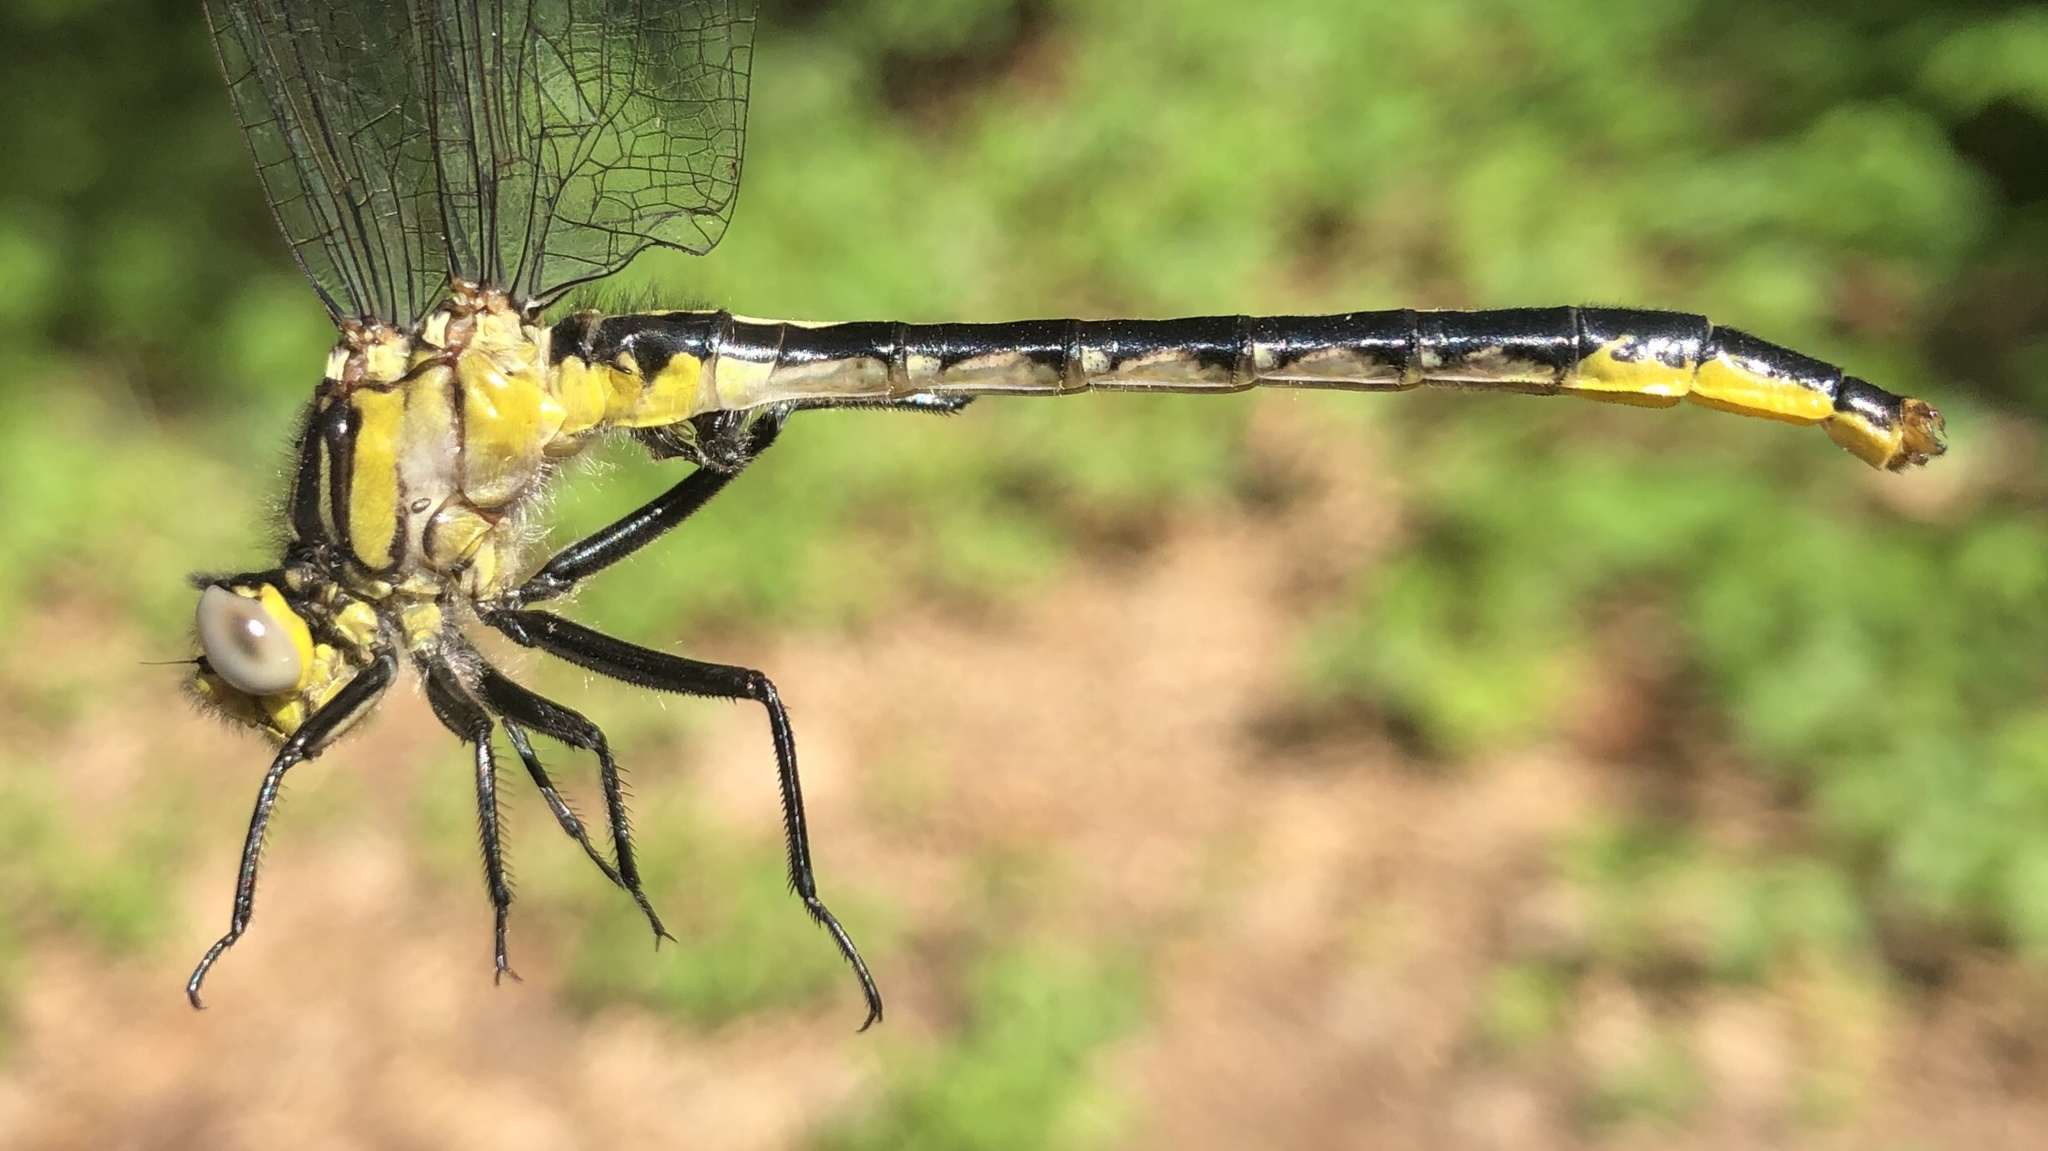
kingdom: Animalia
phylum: Arthropoda
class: Insecta
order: Odonata
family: Gomphidae
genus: Arigomphus
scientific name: Arigomphus furcifer
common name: Lilypad clubtail
